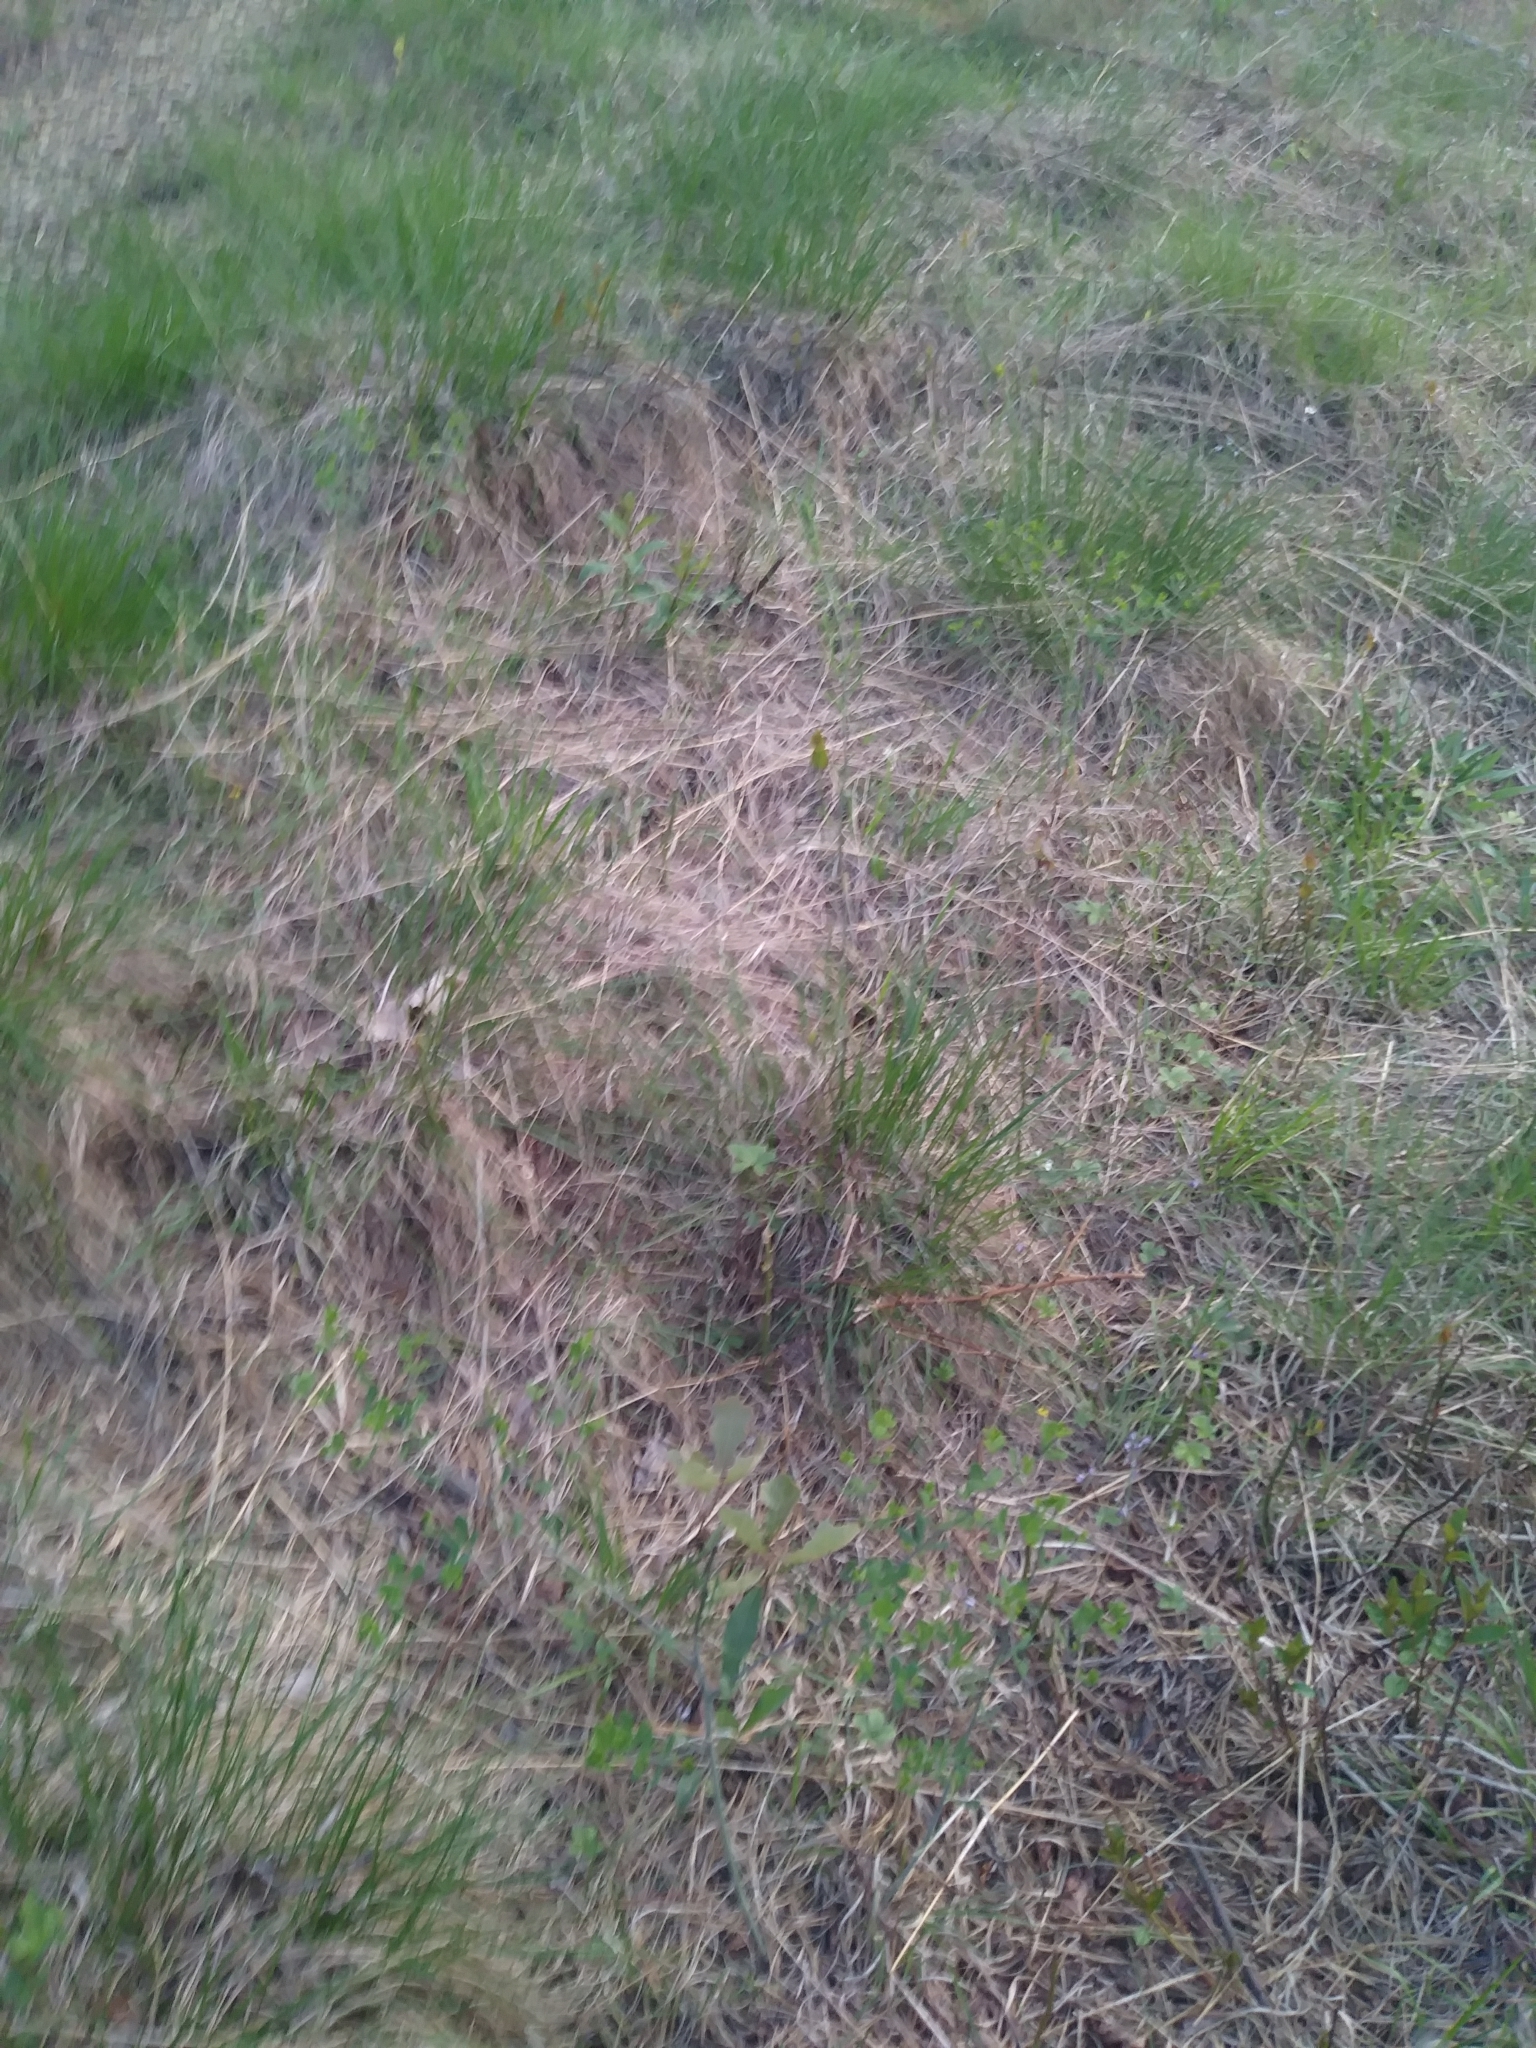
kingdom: Plantae
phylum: Tracheophyta
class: Magnoliopsida
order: Fabales
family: Fabaceae
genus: Baptisia
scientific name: Baptisia tinctoria
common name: Wild indigo
